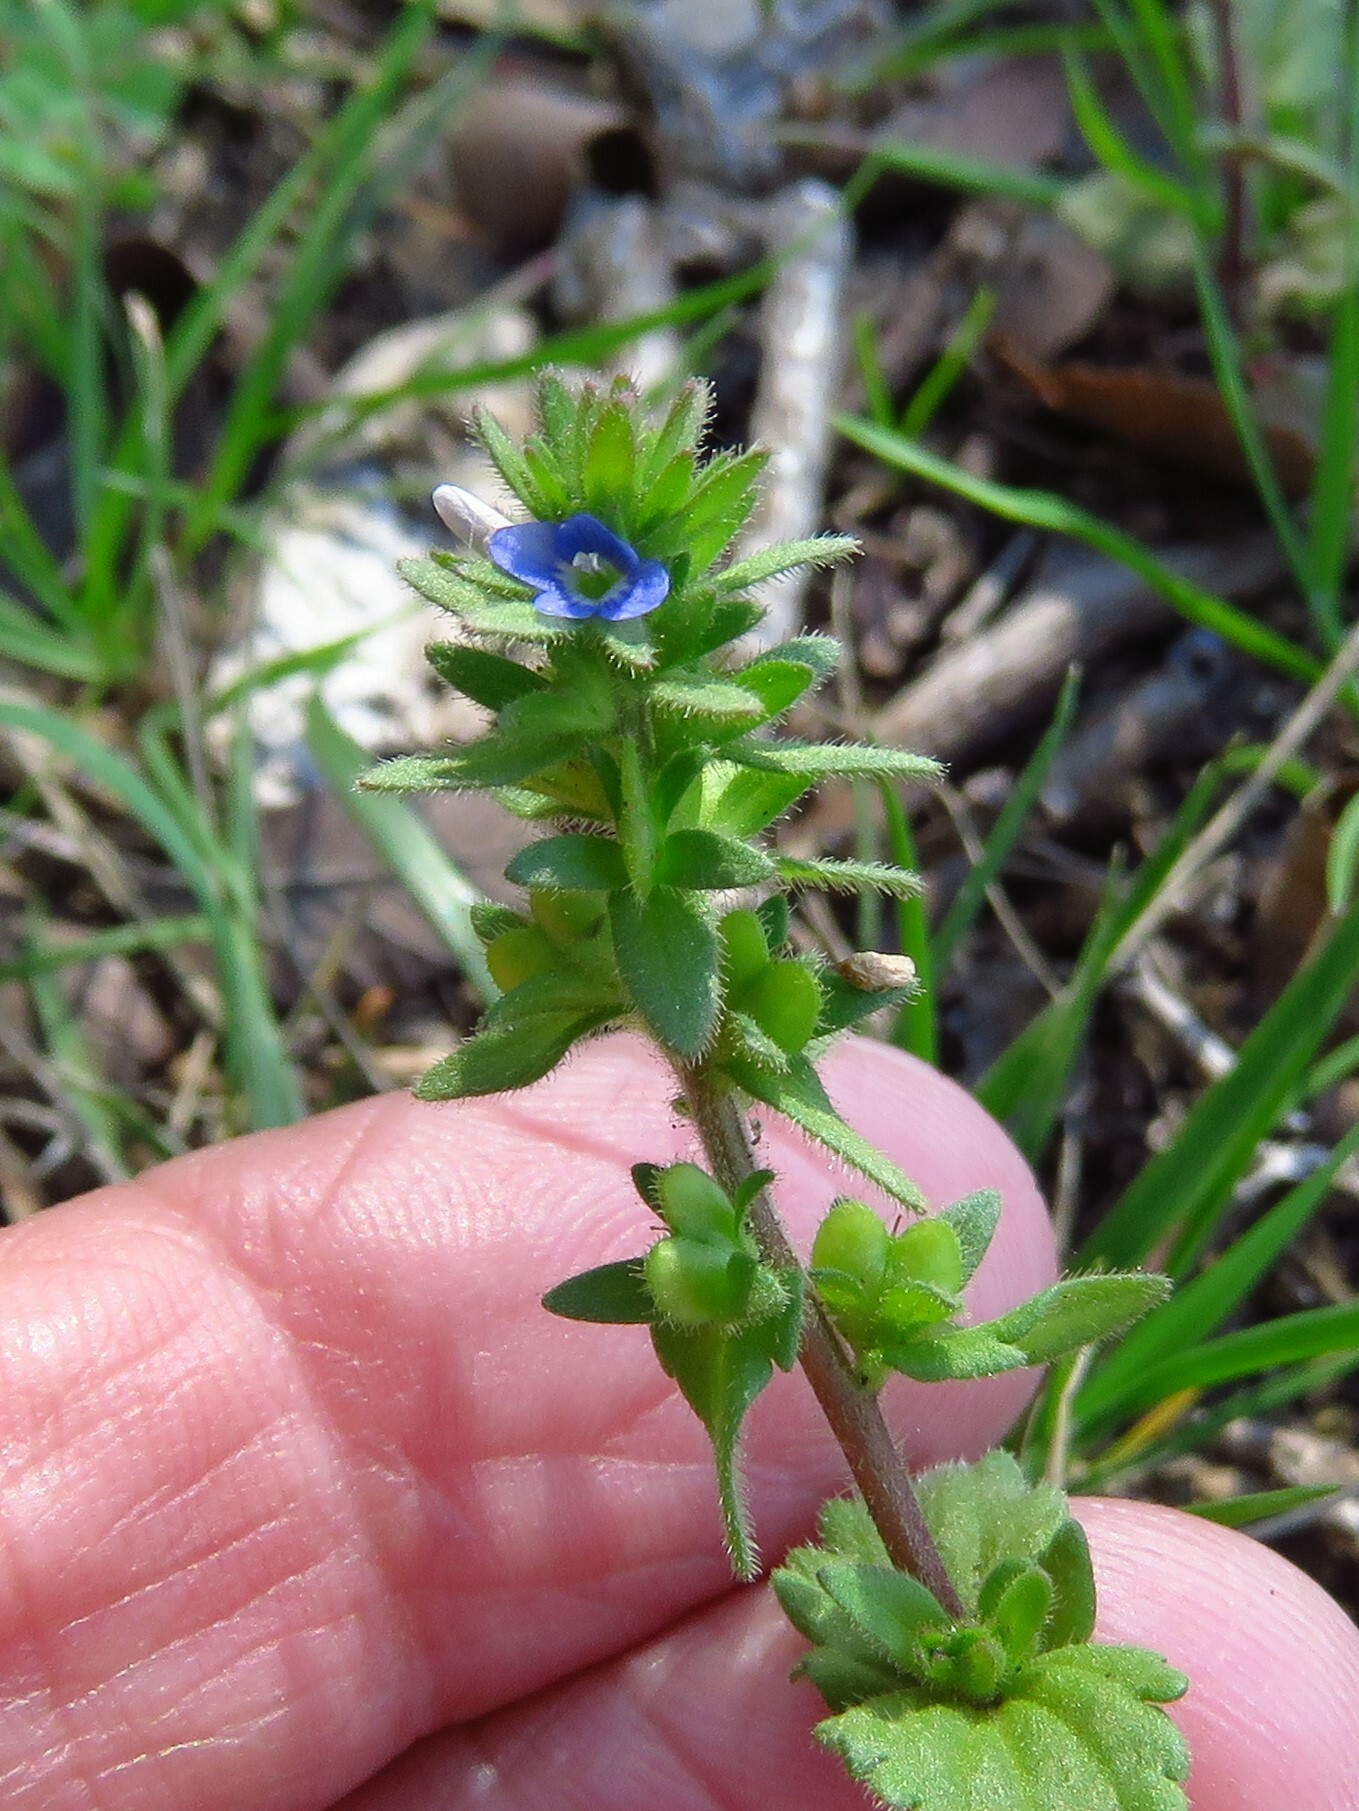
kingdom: Plantae
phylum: Tracheophyta
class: Magnoliopsida
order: Lamiales
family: Plantaginaceae
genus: Veronica
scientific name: Veronica arvensis
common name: Corn speedwell
